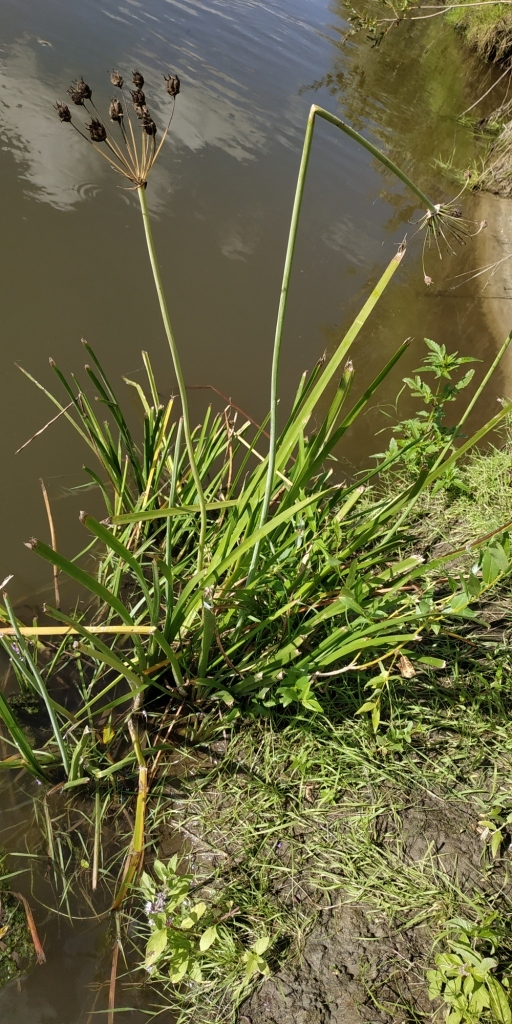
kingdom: Plantae
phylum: Tracheophyta
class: Liliopsida
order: Alismatales
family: Butomaceae
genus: Butomus
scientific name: Butomus umbellatus
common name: Flowering-rush
